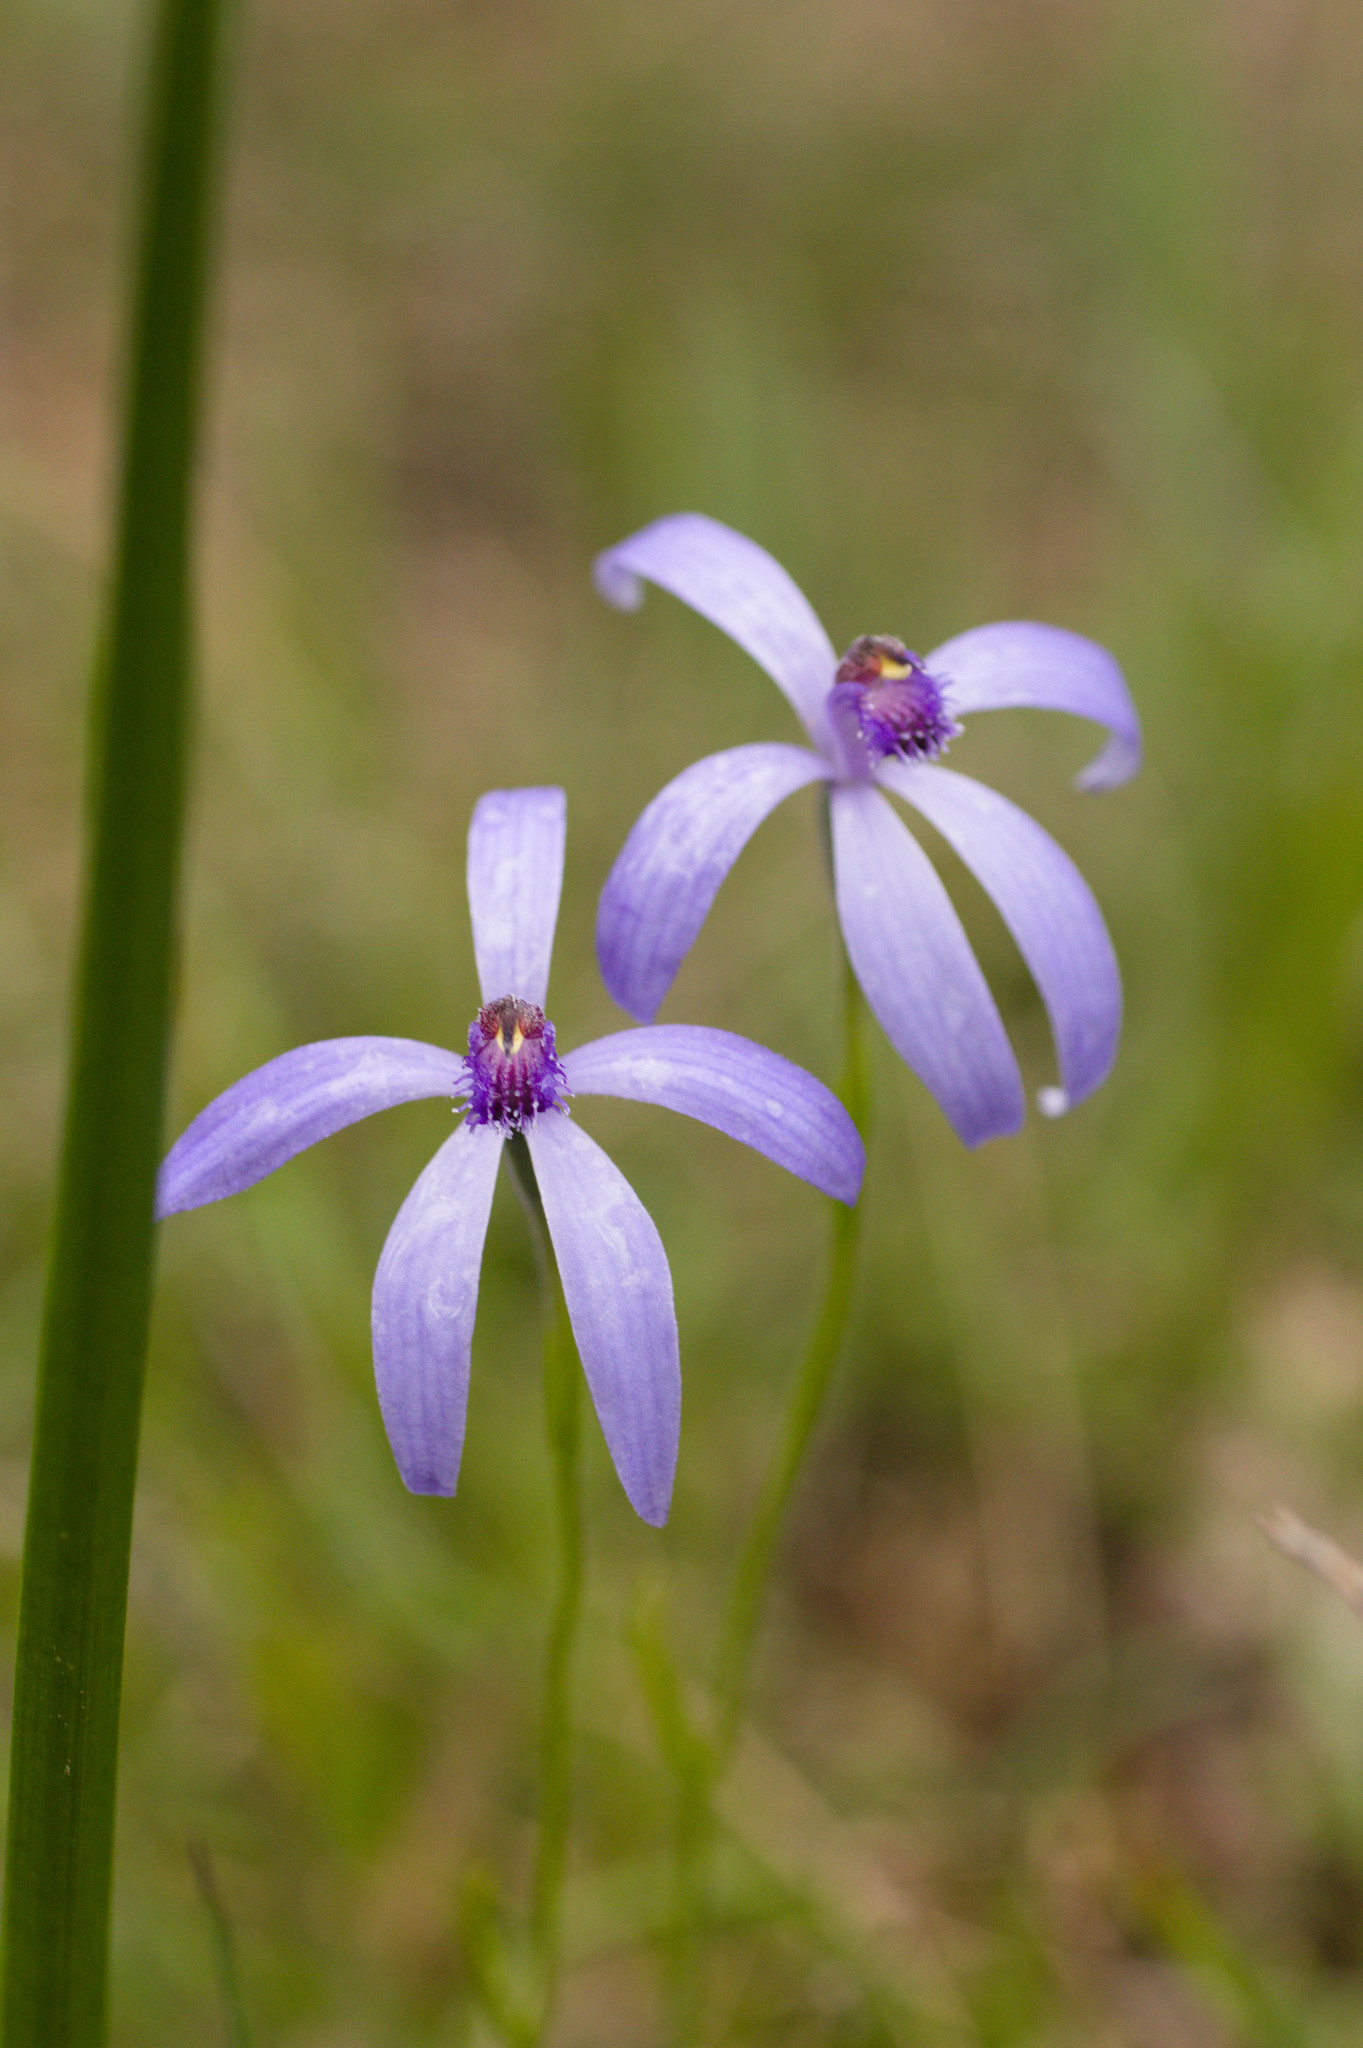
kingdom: Plantae
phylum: Tracheophyta
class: Liliopsida
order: Asparagales
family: Orchidaceae
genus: Pheladenia
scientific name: Pheladenia deformis
